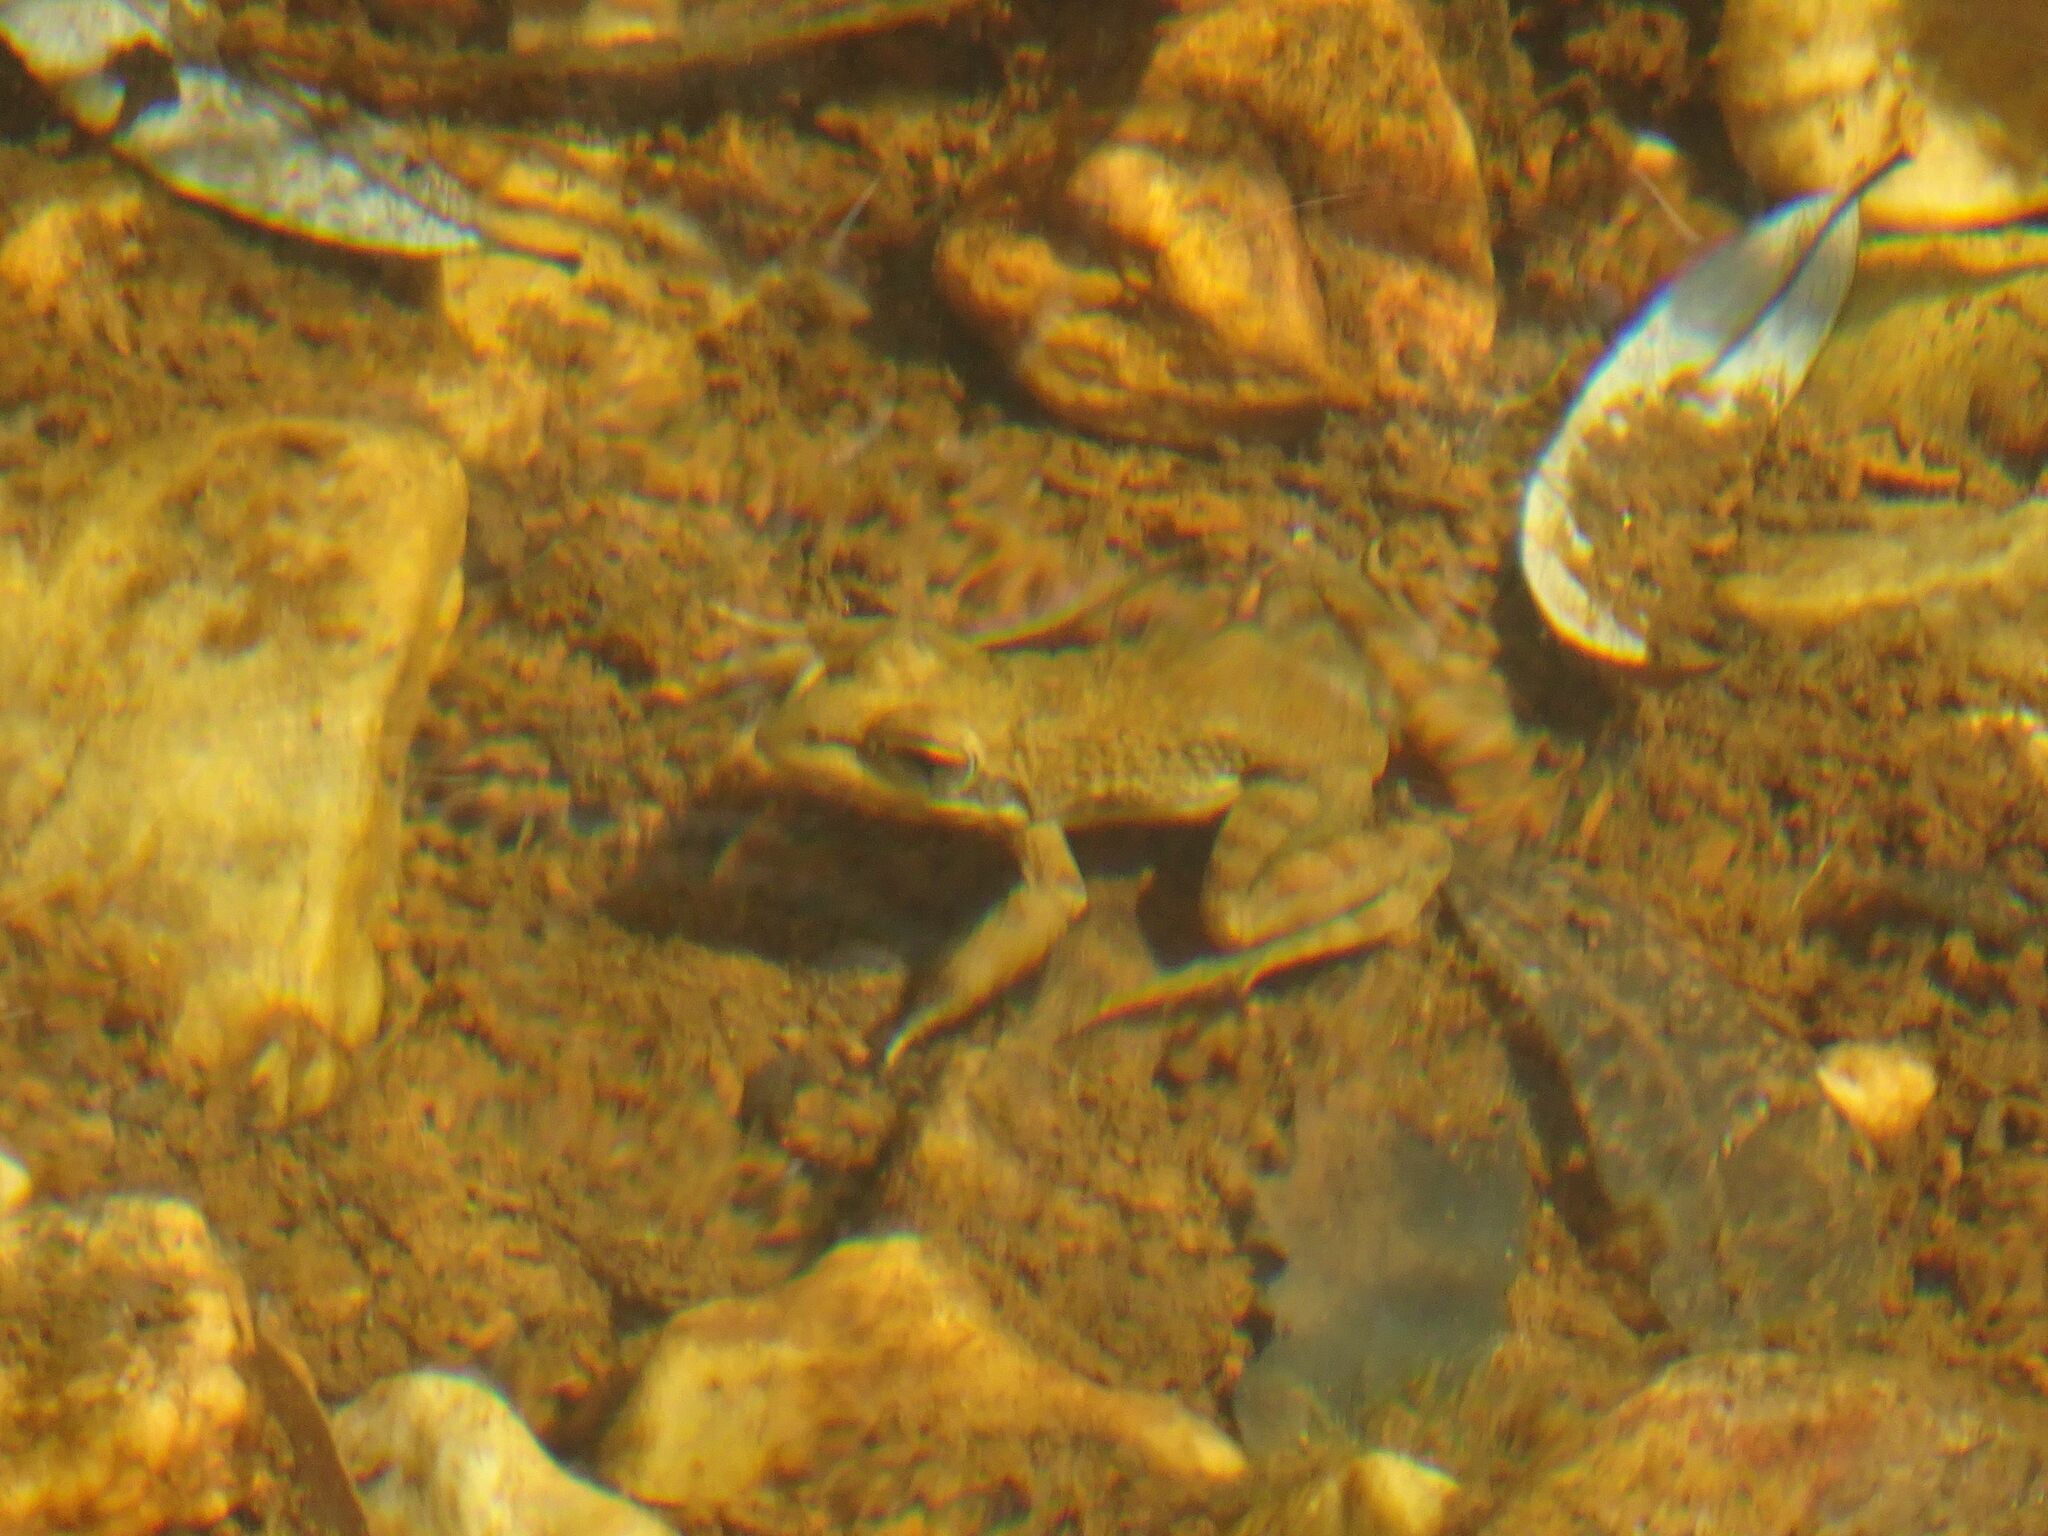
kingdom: Animalia
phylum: Chordata
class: Amphibia
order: Anura
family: Pyxicephalidae
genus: Amietia
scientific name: Amietia fuscigula
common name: Cape rana
